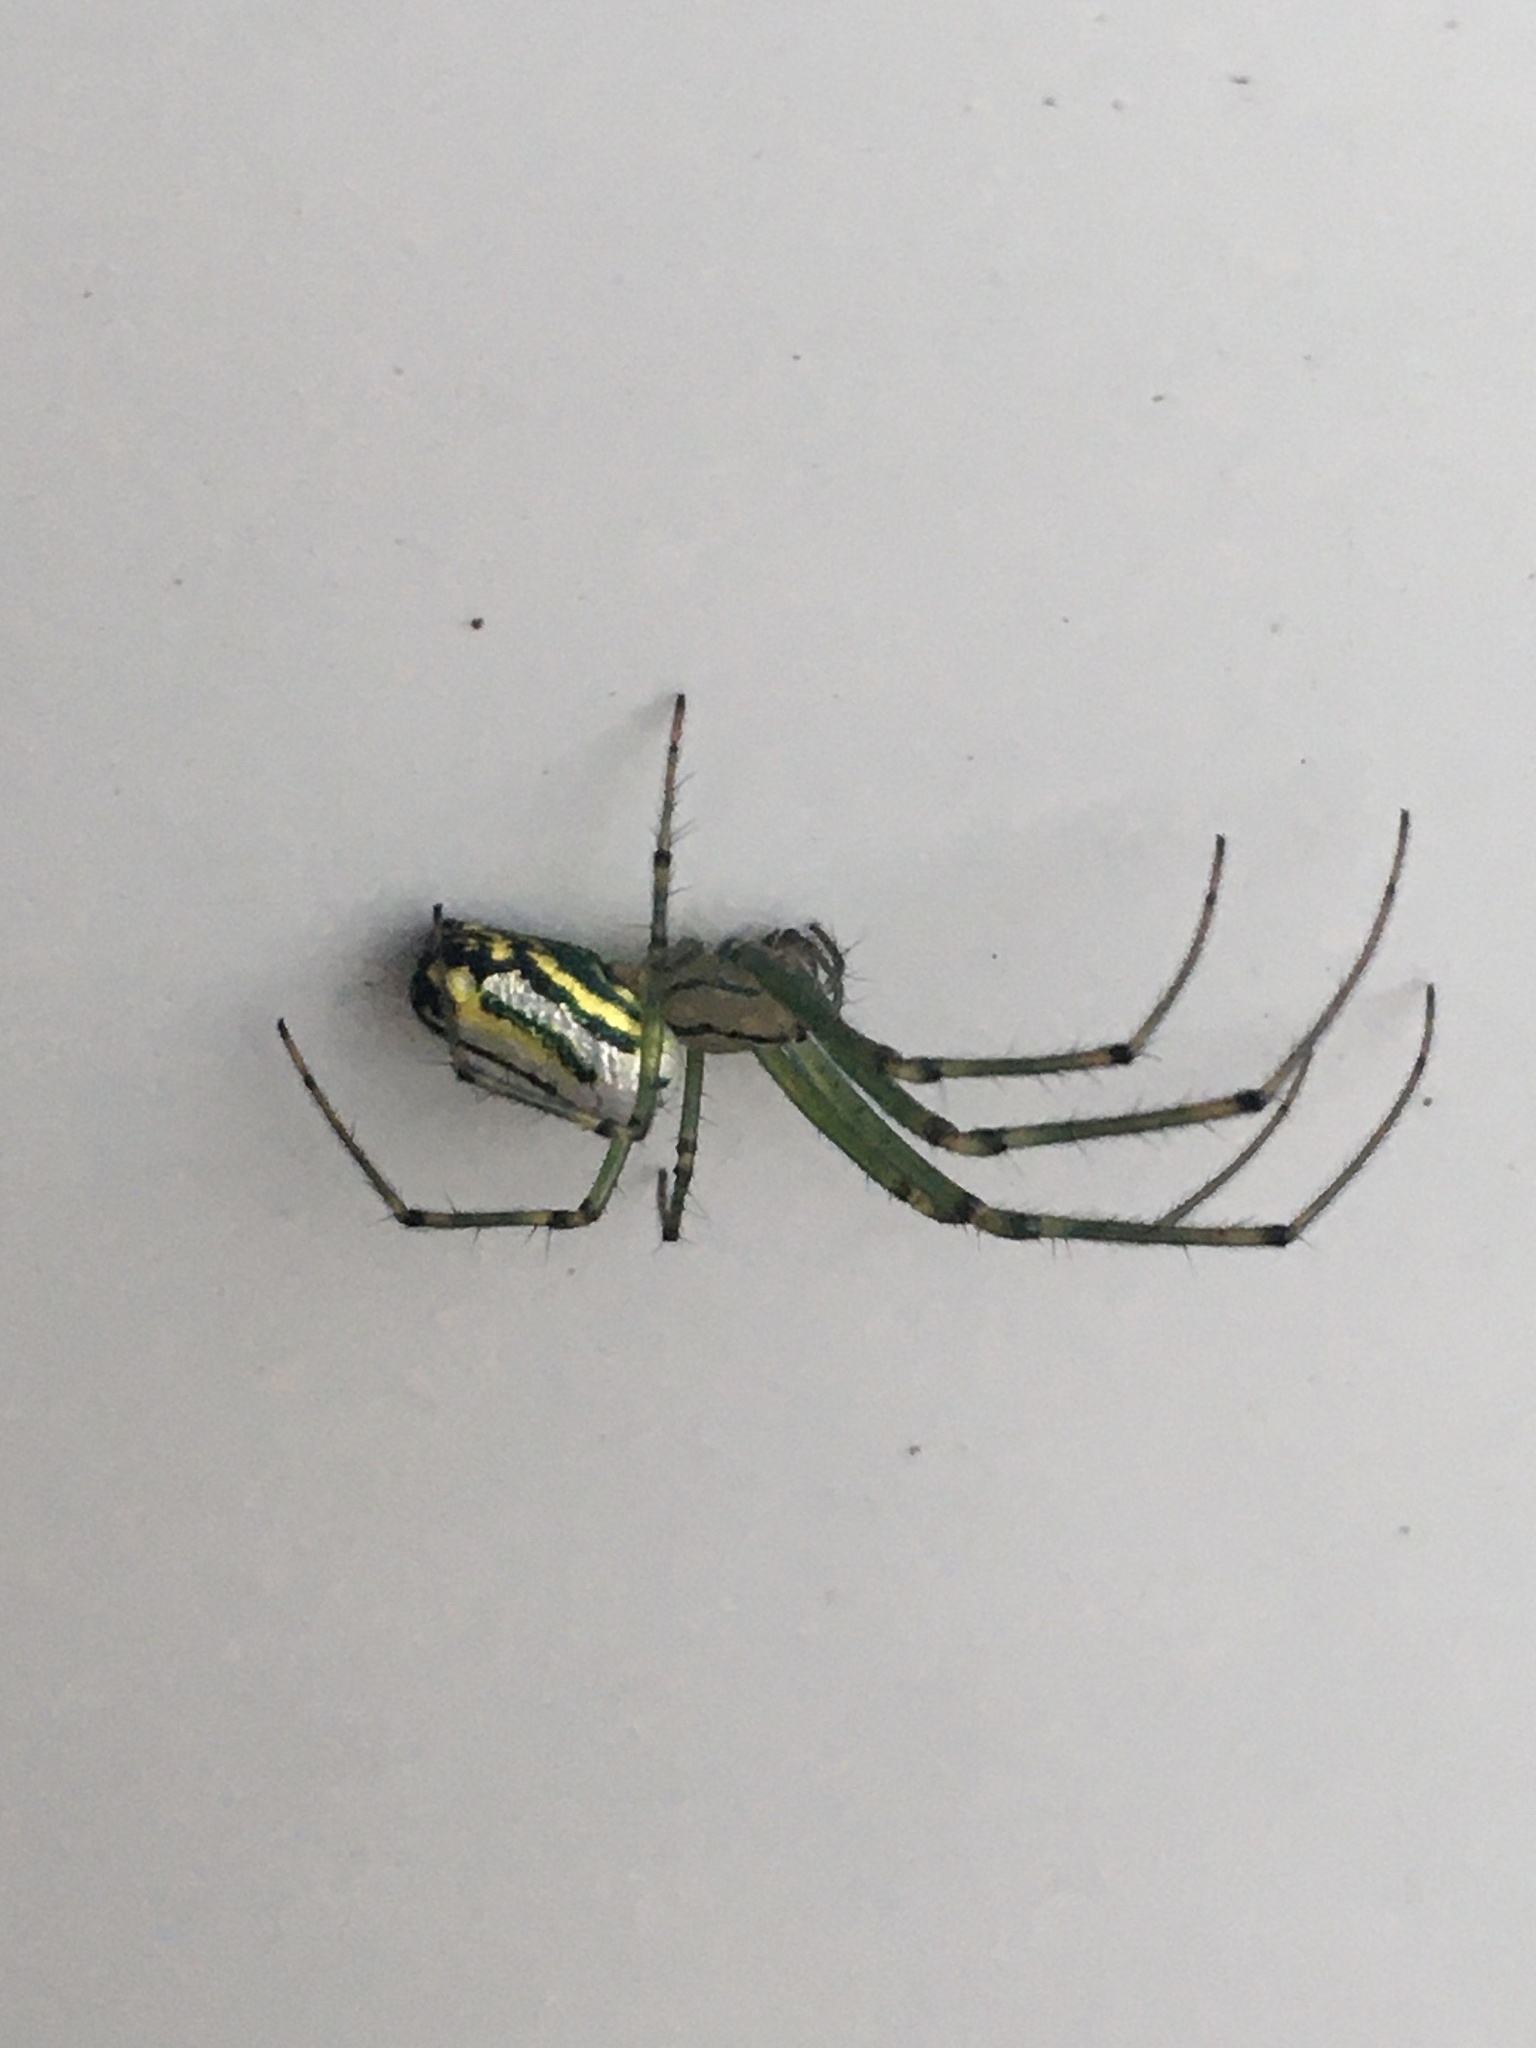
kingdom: Animalia
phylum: Arthropoda
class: Arachnida
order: Araneae
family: Tetragnathidae
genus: Leucauge
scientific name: Leucauge venusta
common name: Longjawed orb weavers
